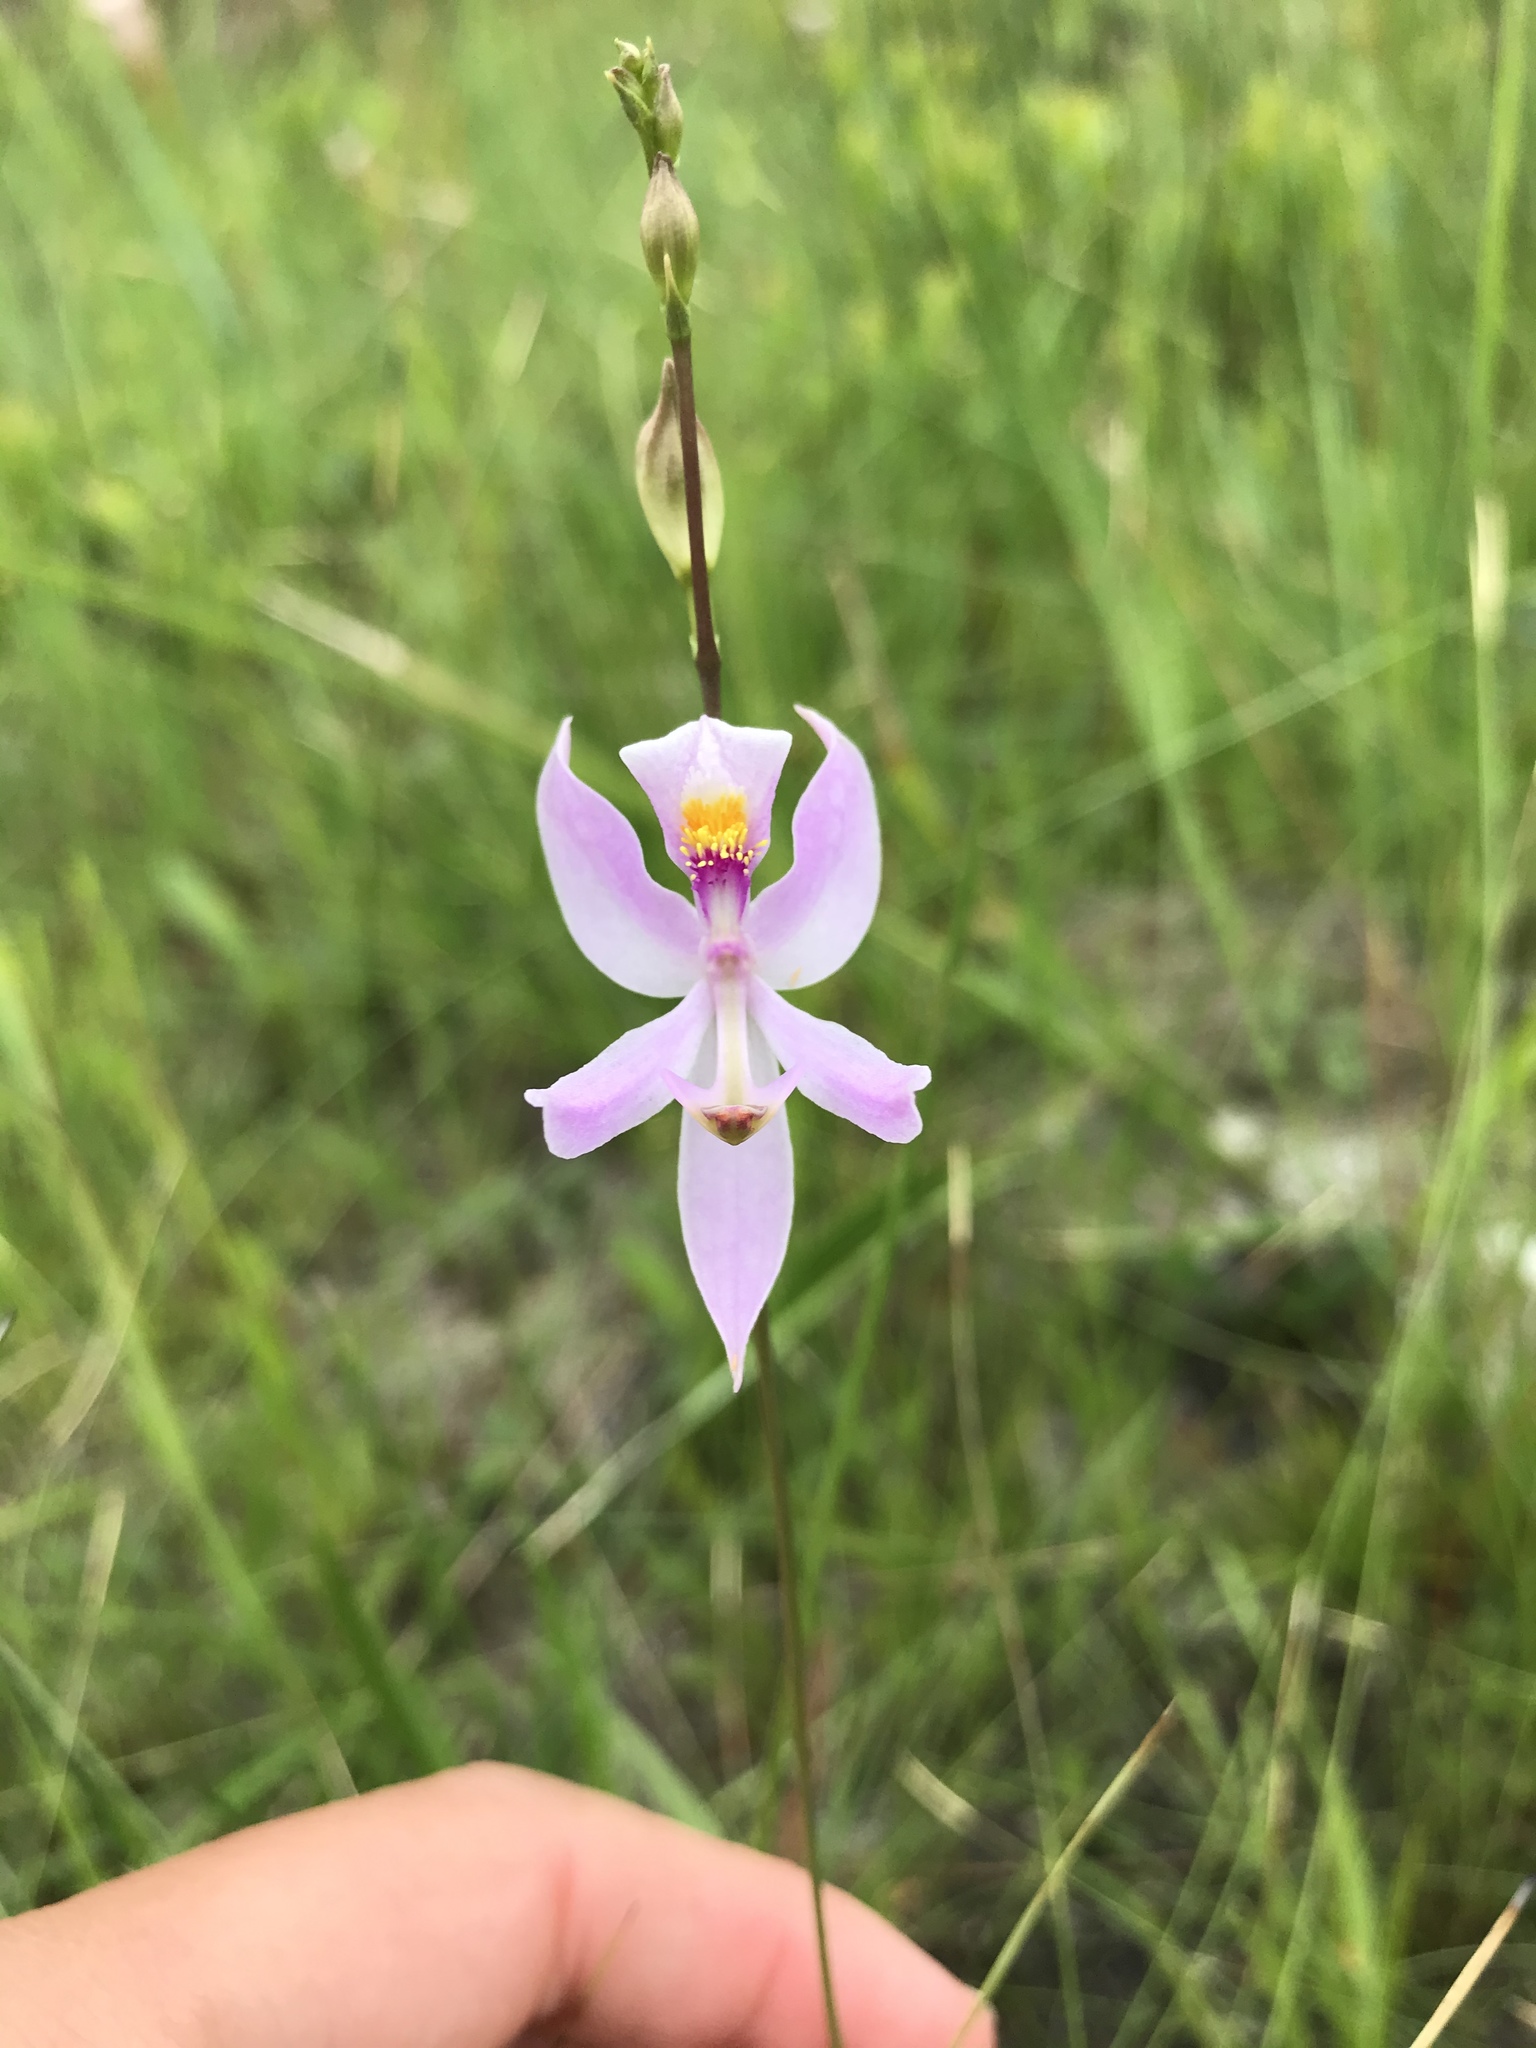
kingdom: Plantae
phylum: Tracheophyta
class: Liliopsida
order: Asparagales
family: Orchidaceae
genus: Calopogon
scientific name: Calopogon pallidus
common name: Pale grasspink
